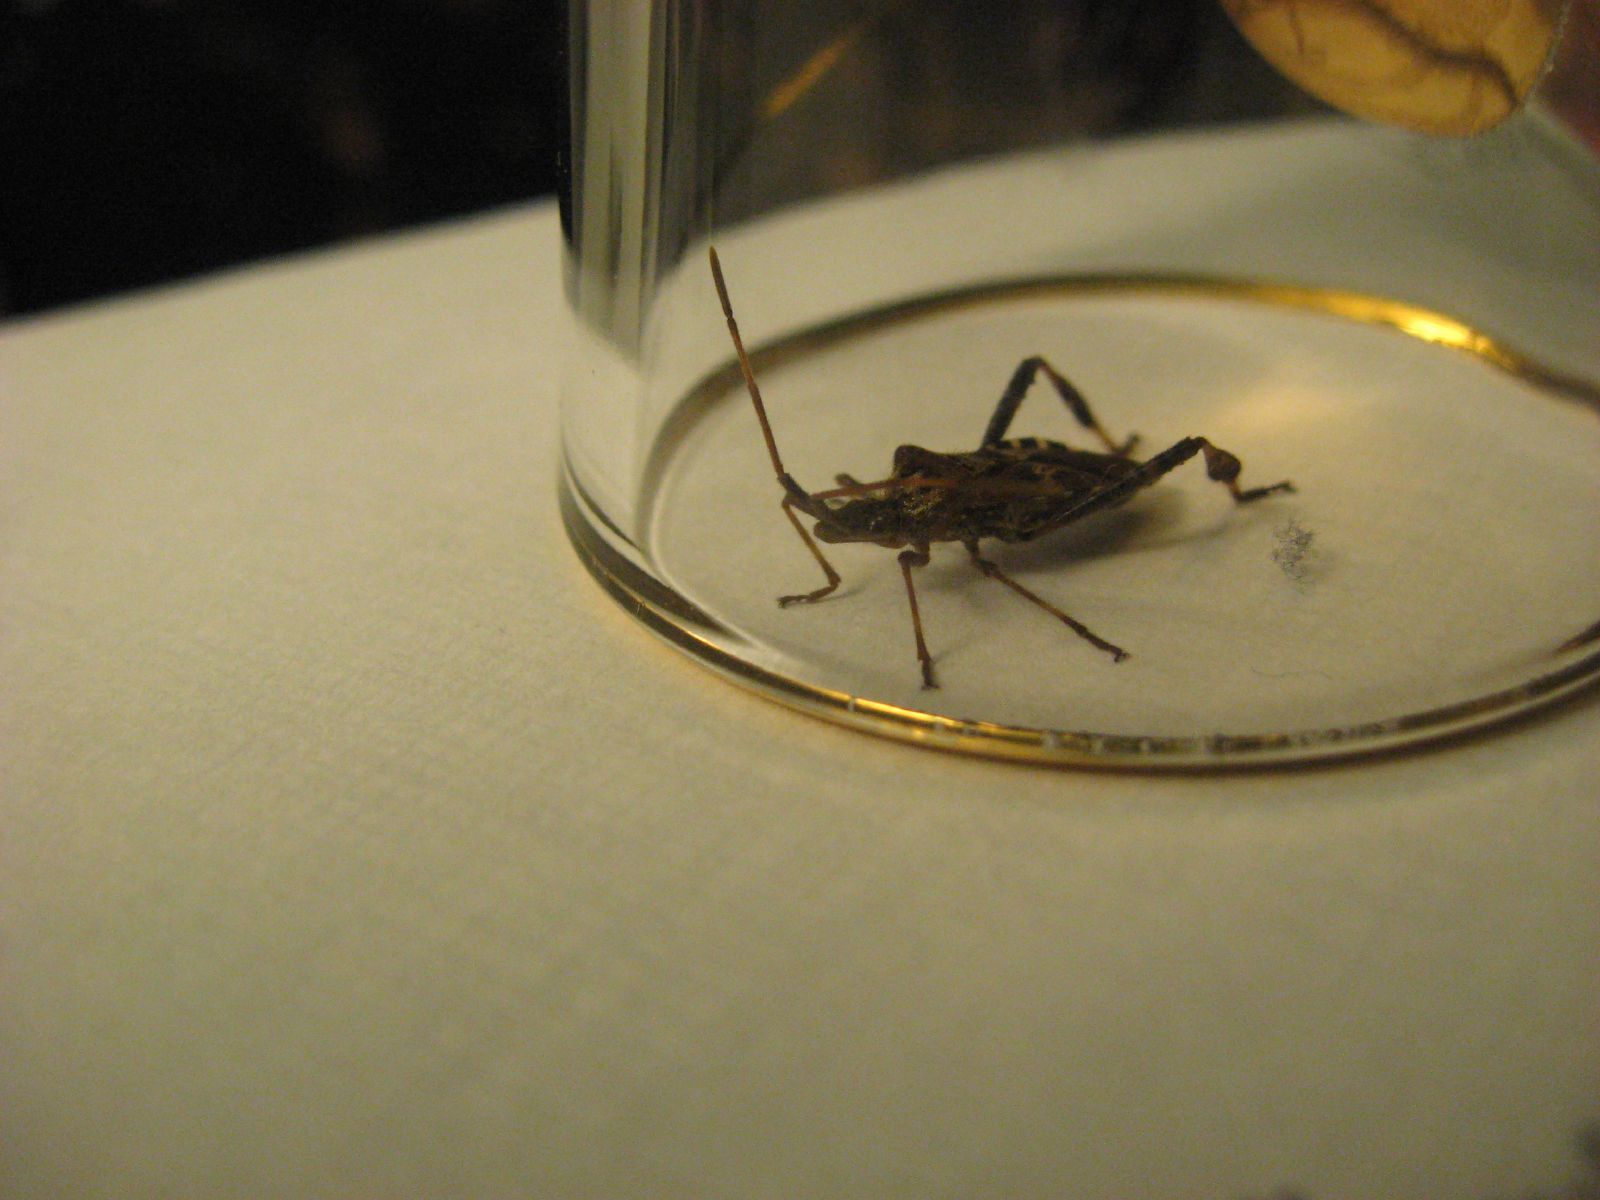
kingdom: Animalia
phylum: Arthropoda
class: Insecta
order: Hemiptera
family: Coreidae
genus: Leptoglossus
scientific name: Leptoglossus occidentalis
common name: Western conifer-seed bug
